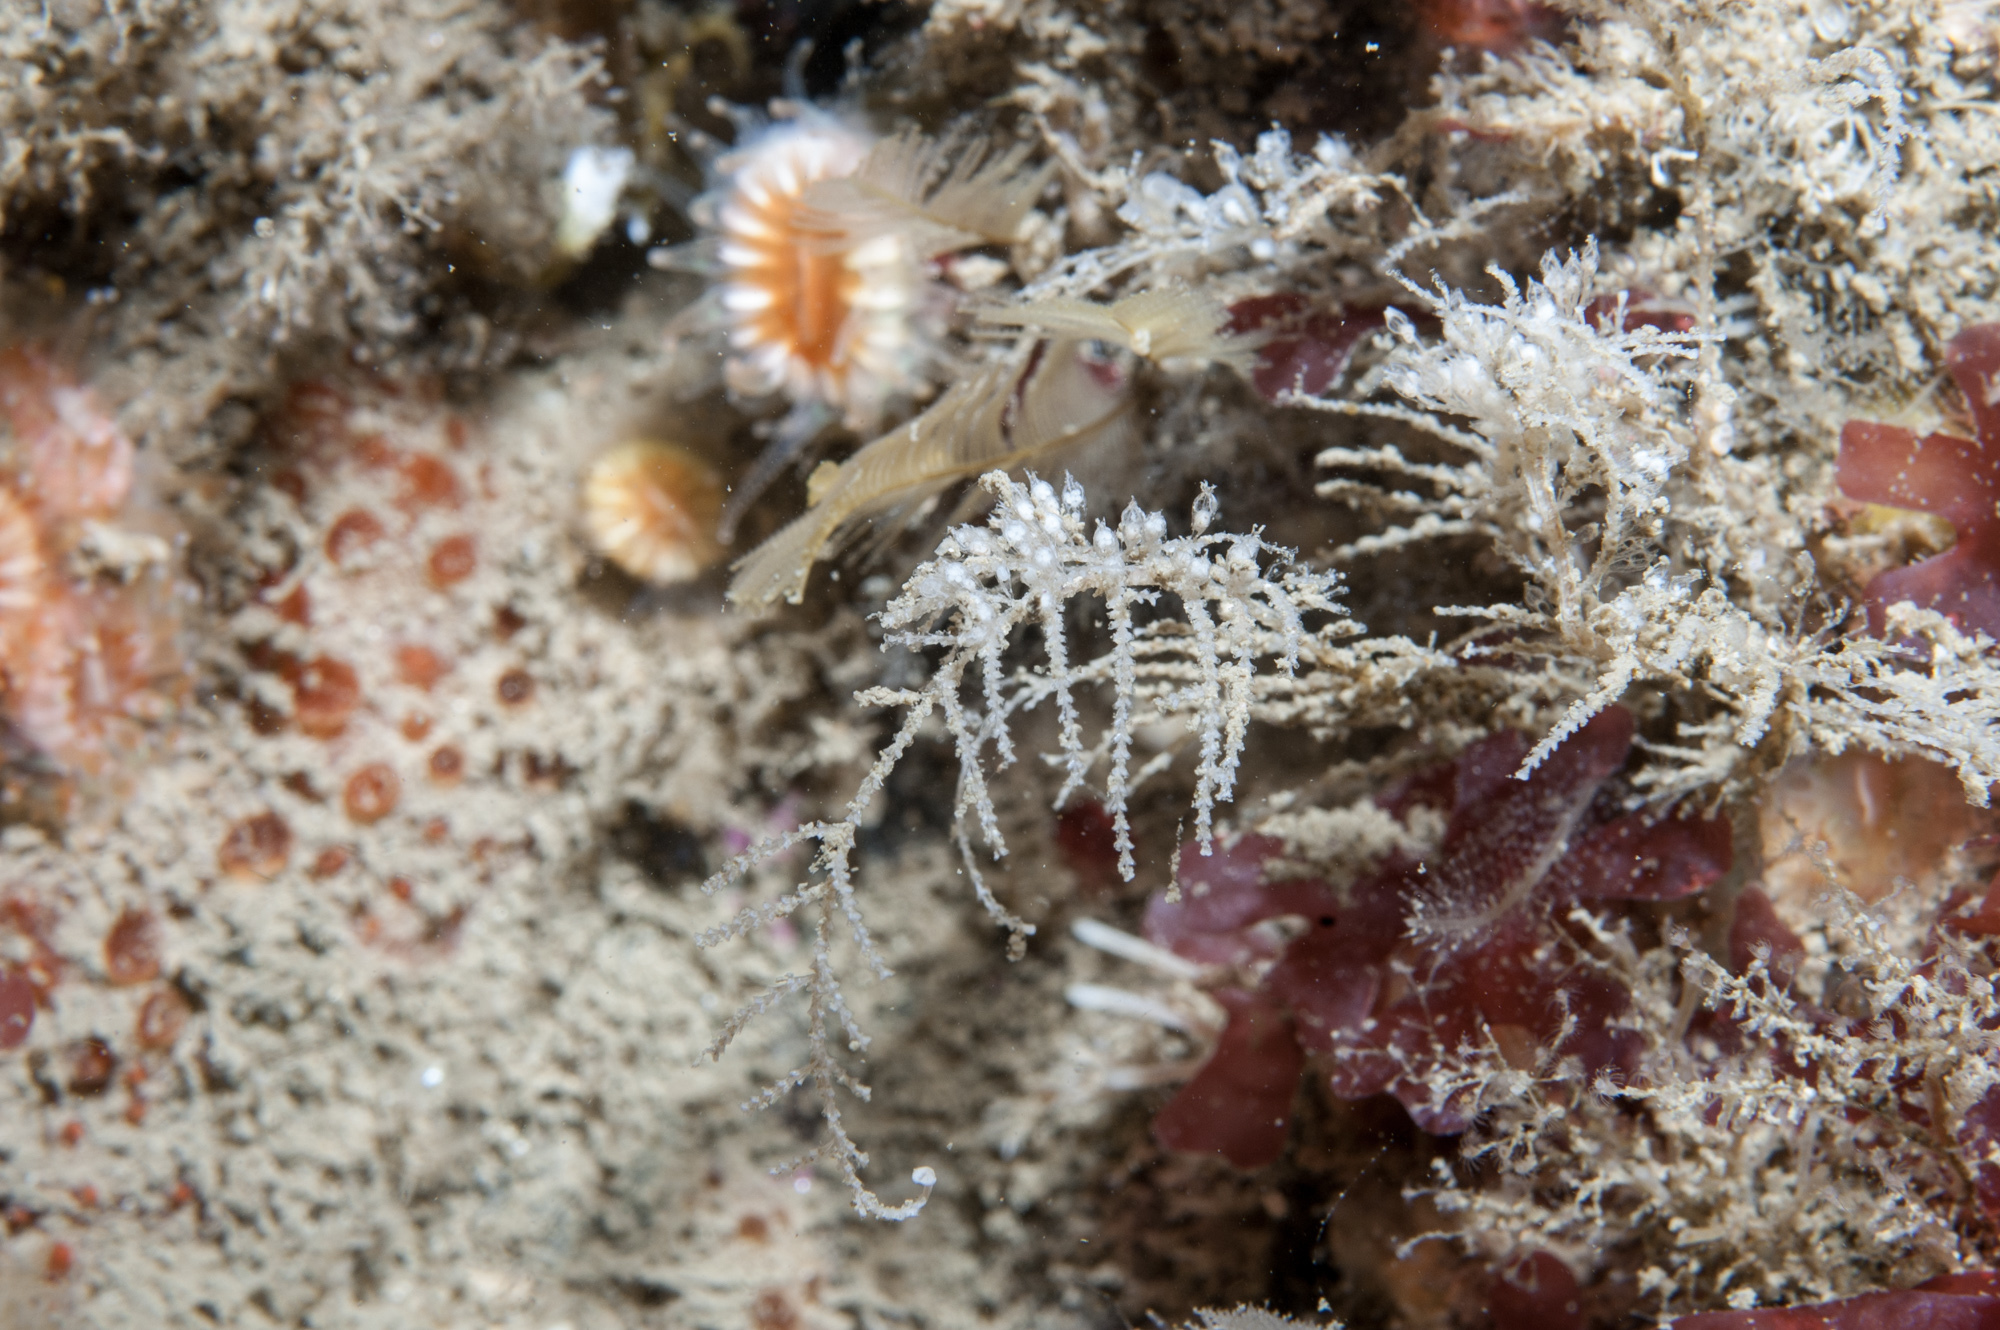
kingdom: Animalia
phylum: Cnidaria
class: Hydrozoa
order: Leptothecata
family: Sertulariidae
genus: Diphasia
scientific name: Diphasia fallax
